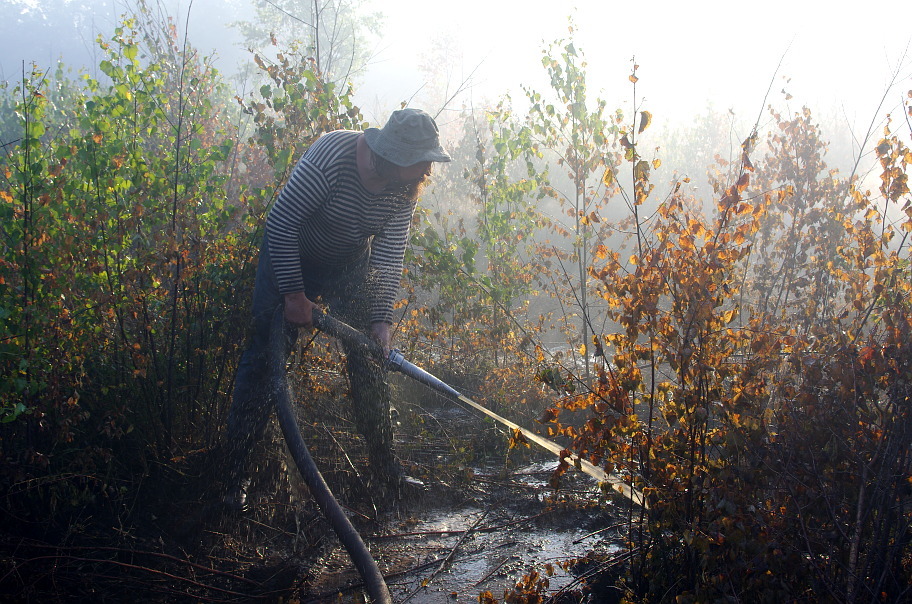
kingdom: Plantae
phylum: Tracheophyta
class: Magnoliopsida
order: Fagales
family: Betulaceae
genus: Betula
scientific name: Betula pendula
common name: Silver birch
